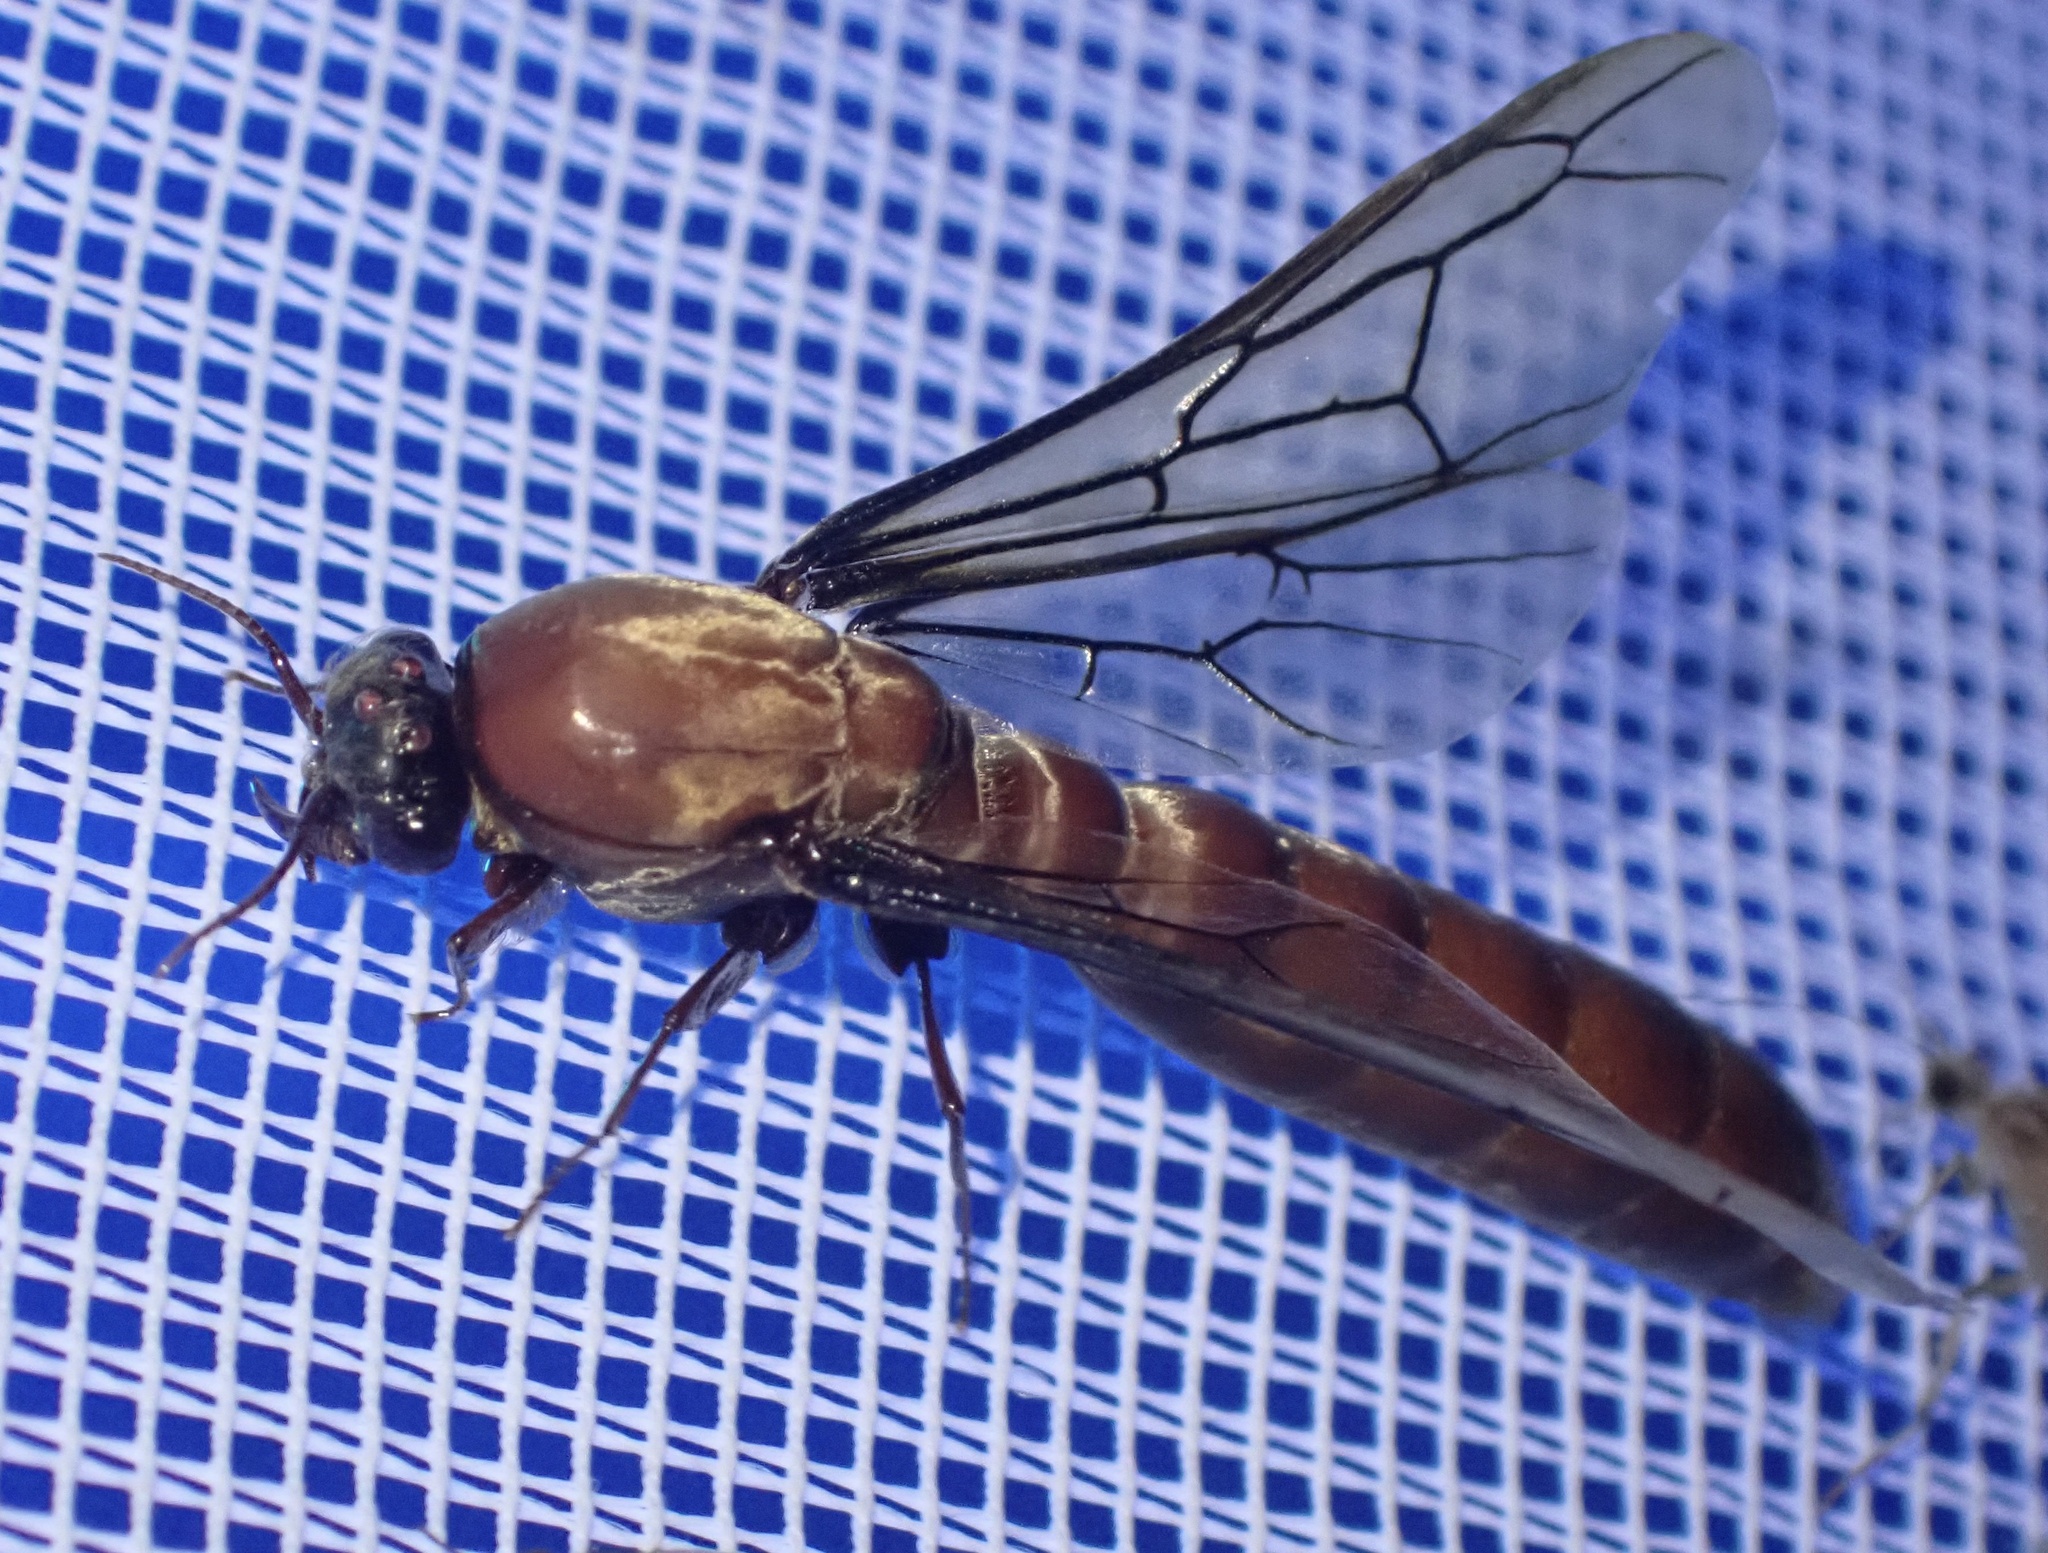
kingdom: Animalia
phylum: Arthropoda
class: Insecta
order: Hymenoptera
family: Formicidae
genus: Dorylus
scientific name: Dorylus fulvus
